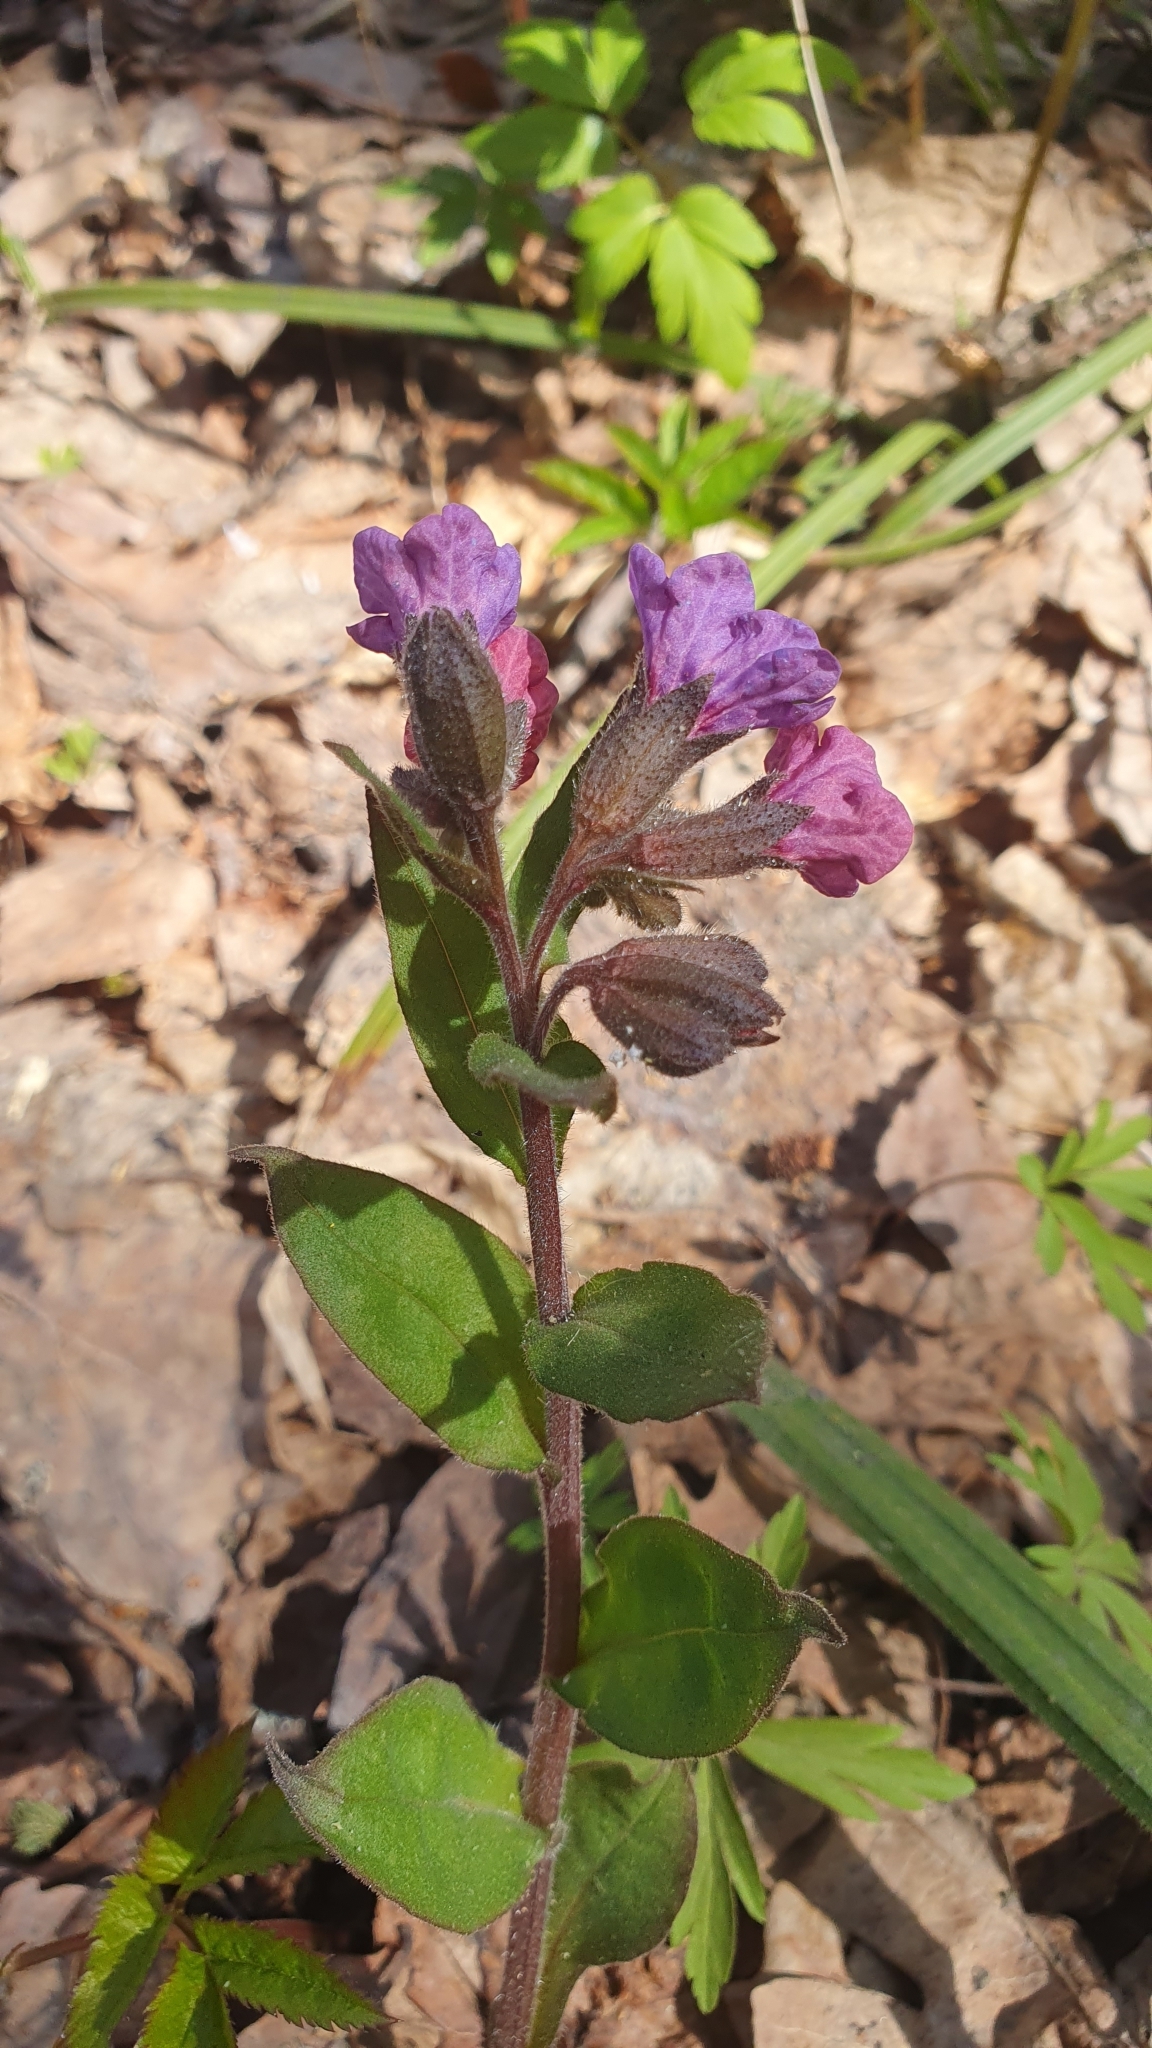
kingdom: Plantae
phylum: Tracheophyta
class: Magnoliopsida
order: Boraginales
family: Boraginaceae
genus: Pulmonaria
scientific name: Pulmonaria obscura
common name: Suffolk lungwort
